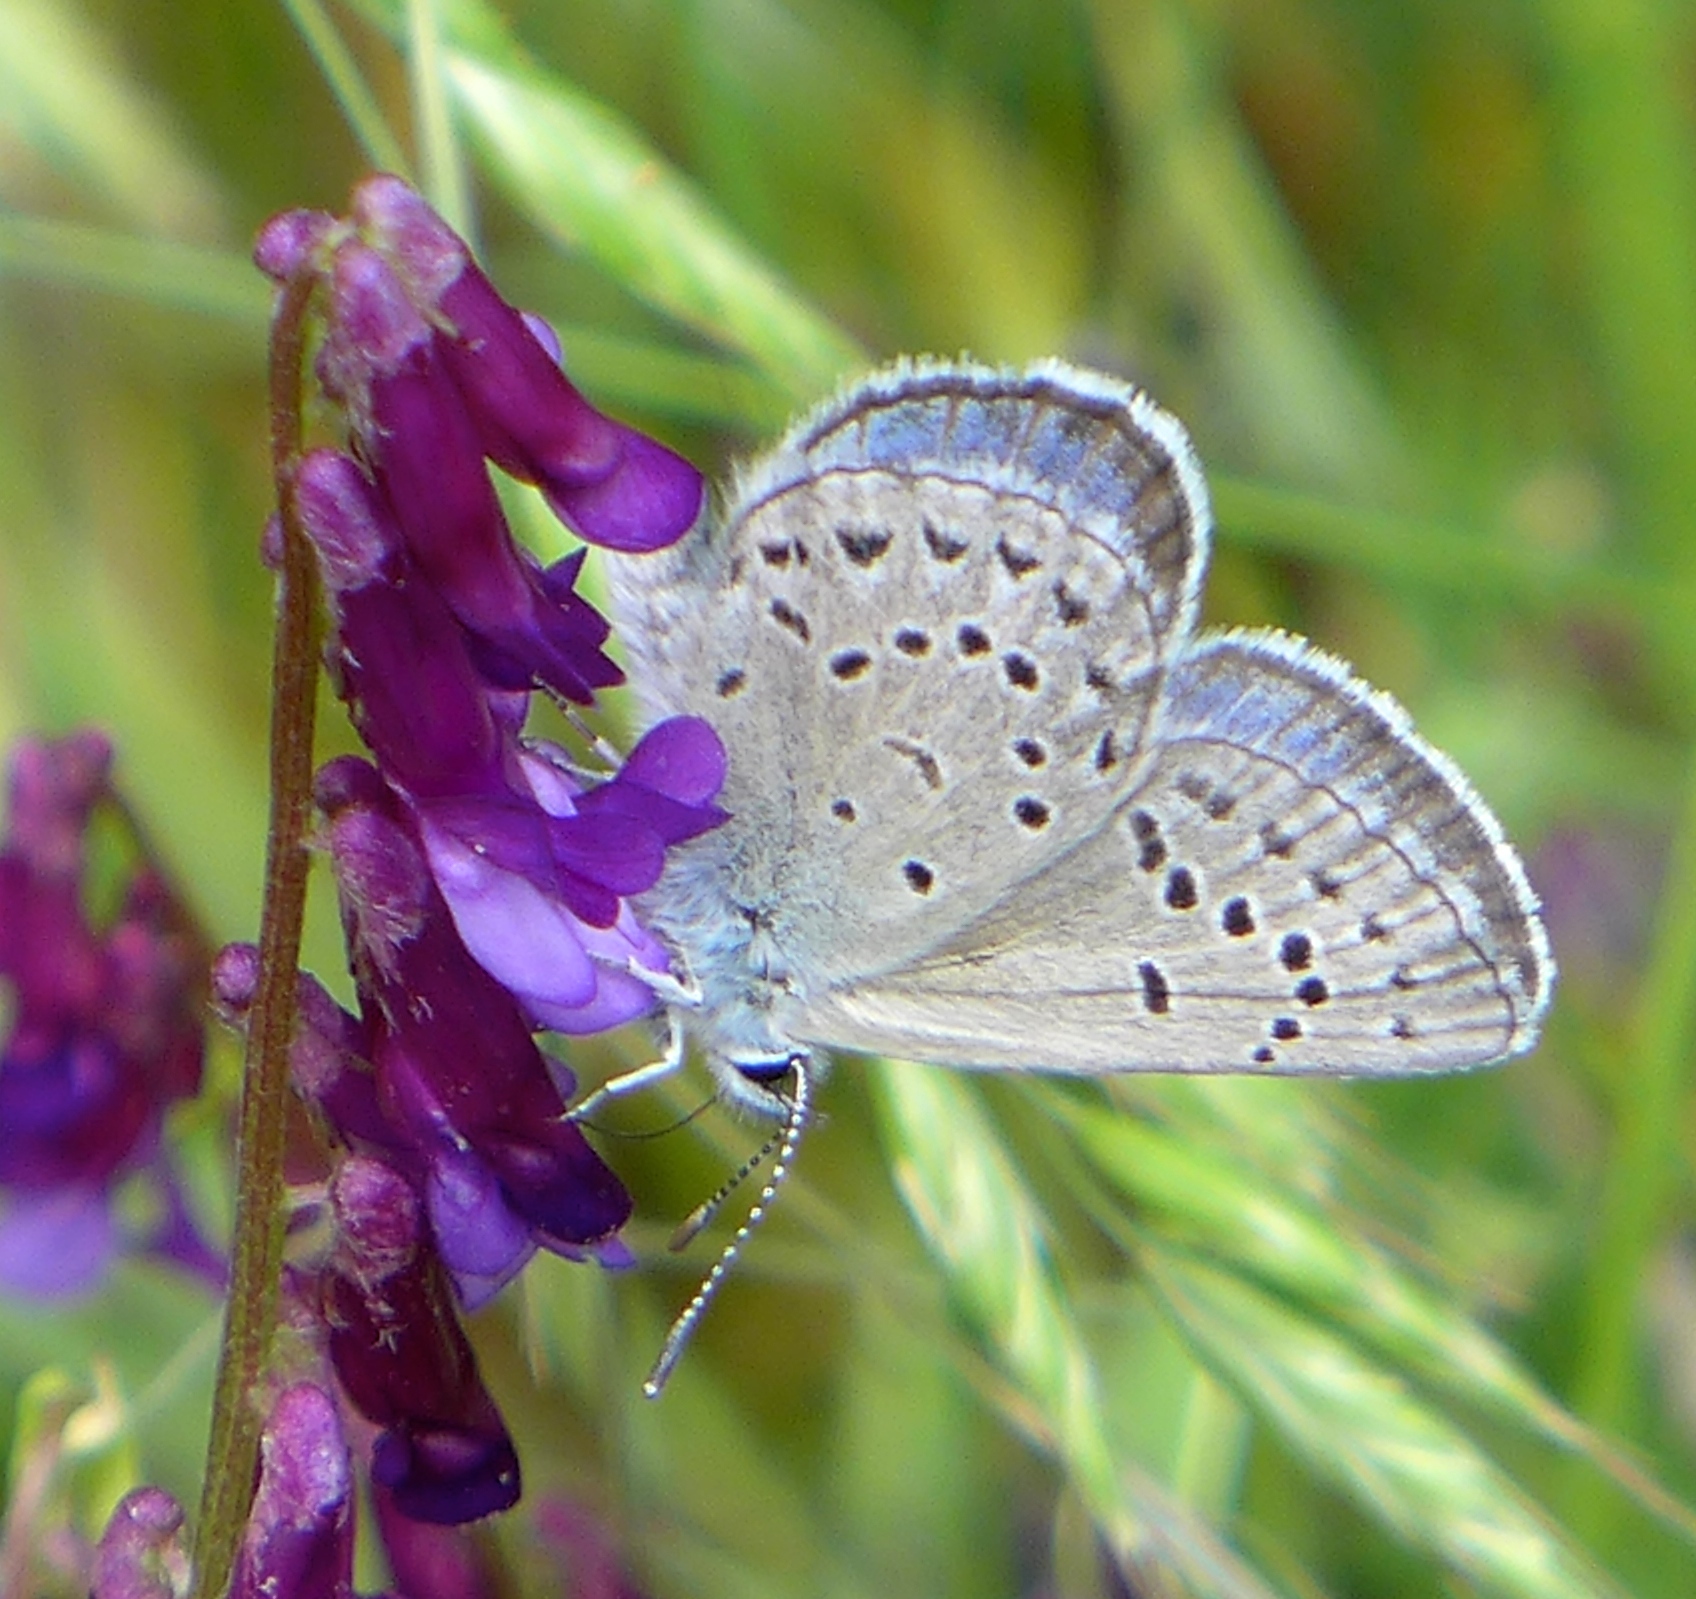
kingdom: Animalia
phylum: Arthropoda
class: Insecta
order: Lepidoptera
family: Lycaenidae
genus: Icaricia
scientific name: Icaricia icarioides
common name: Boisduval's blue
